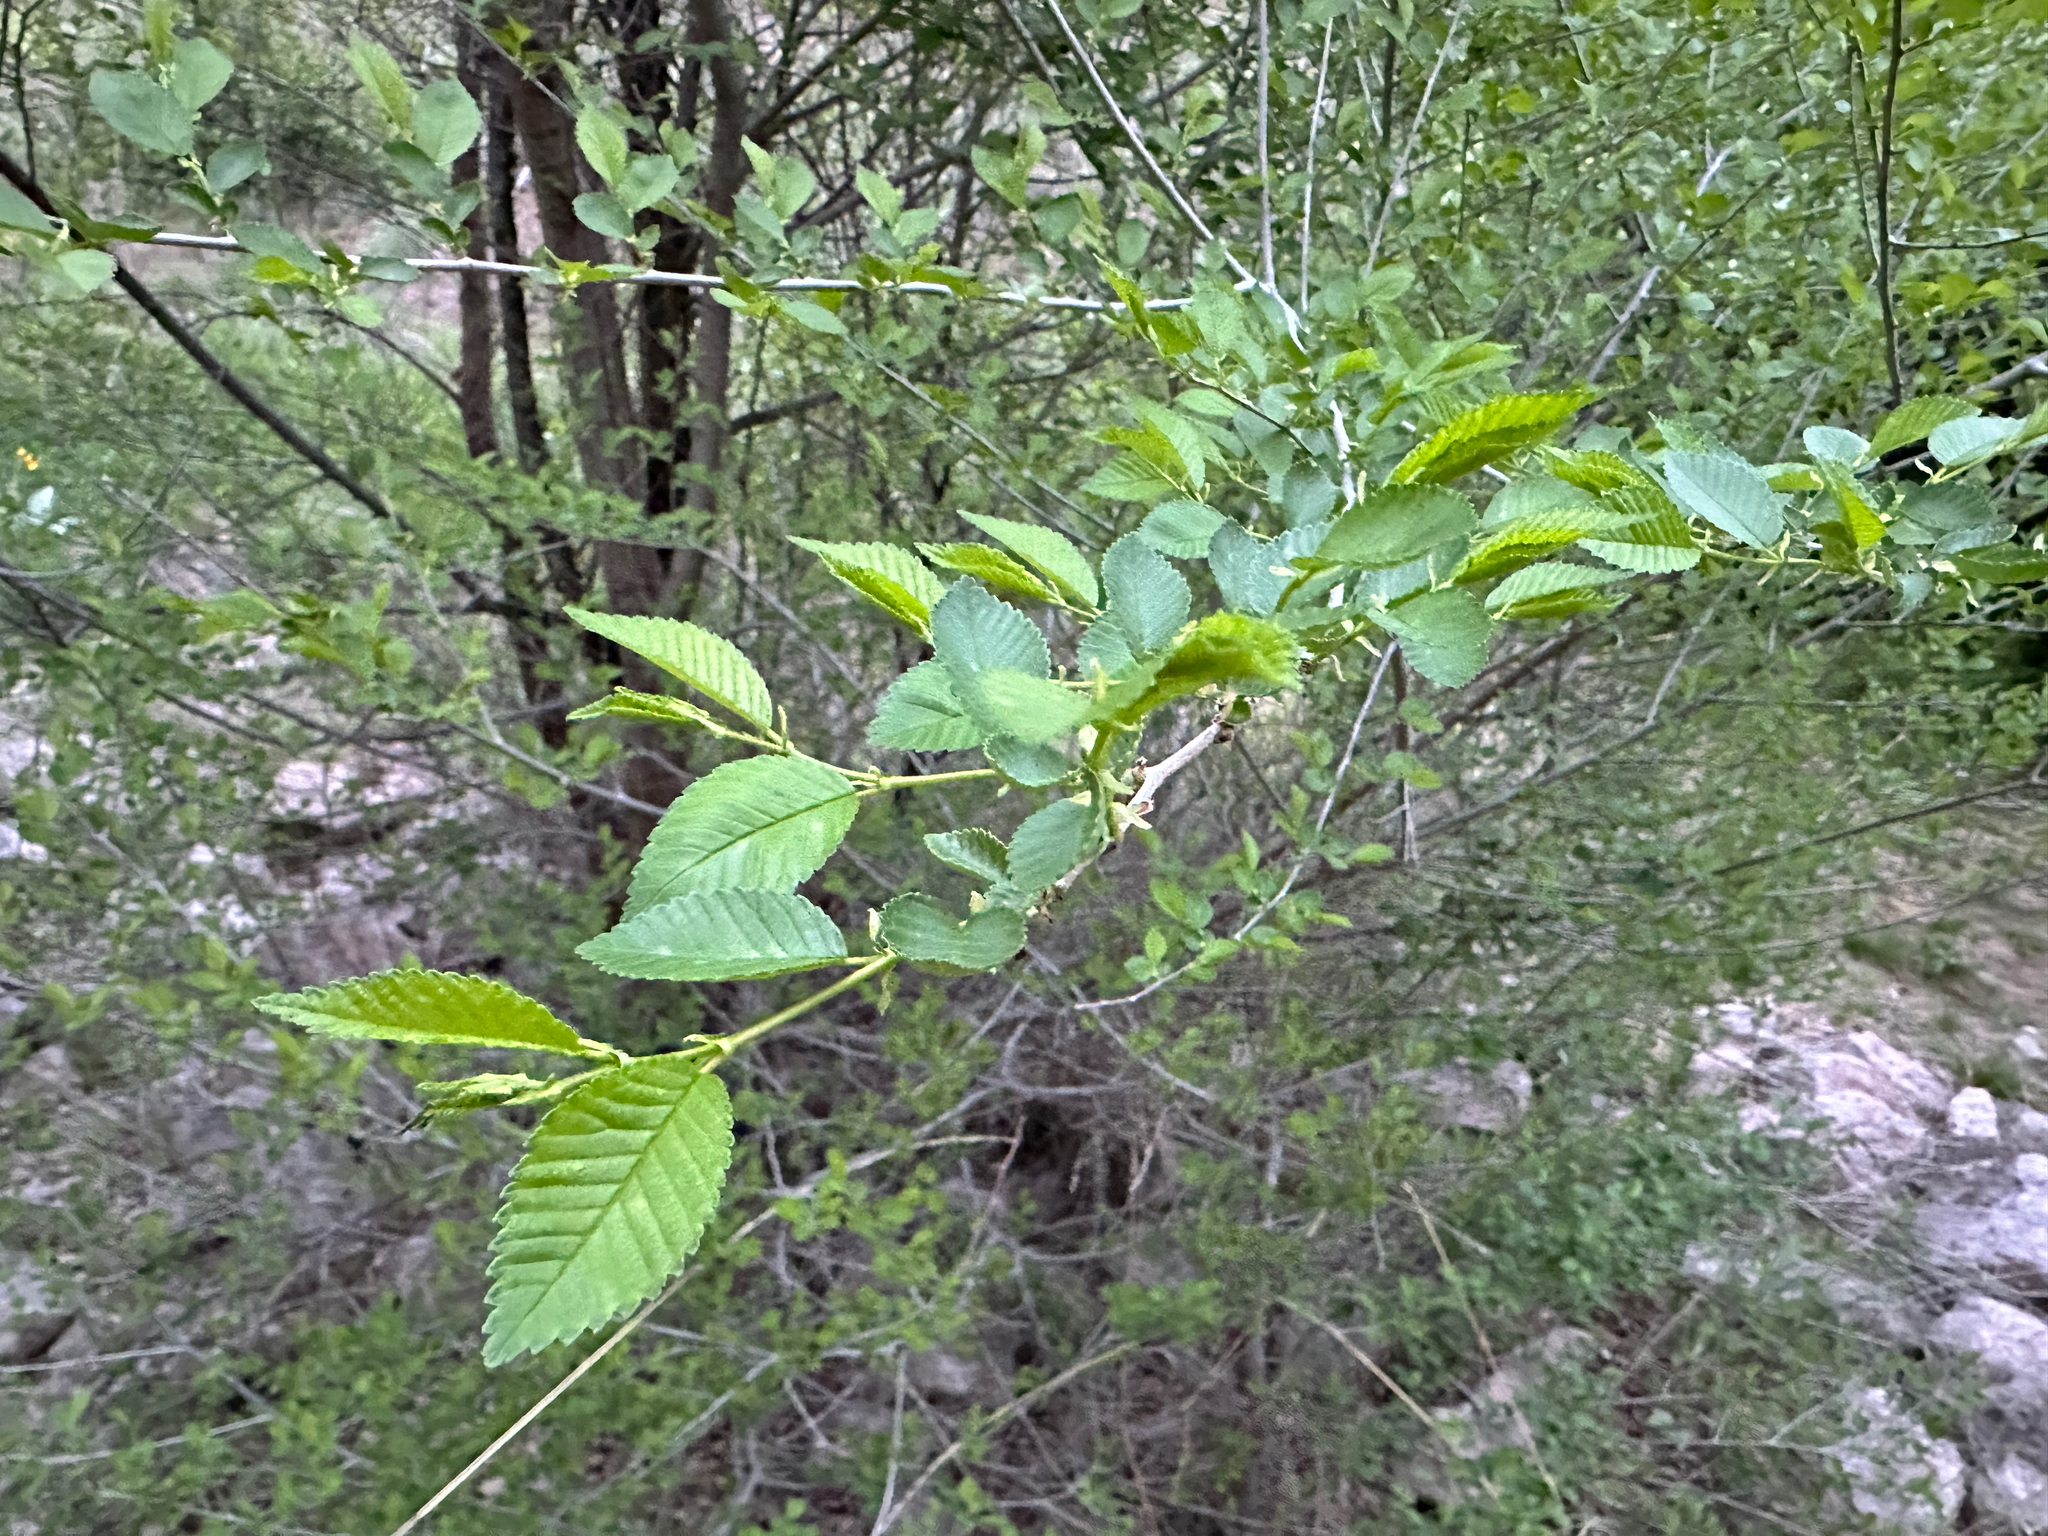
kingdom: Plantae
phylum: Tracheophyta
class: Magnoliopsida
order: Rosales
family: Ulmaceae
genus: Ulmus
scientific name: Ulmus pumila
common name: Siberian elm
